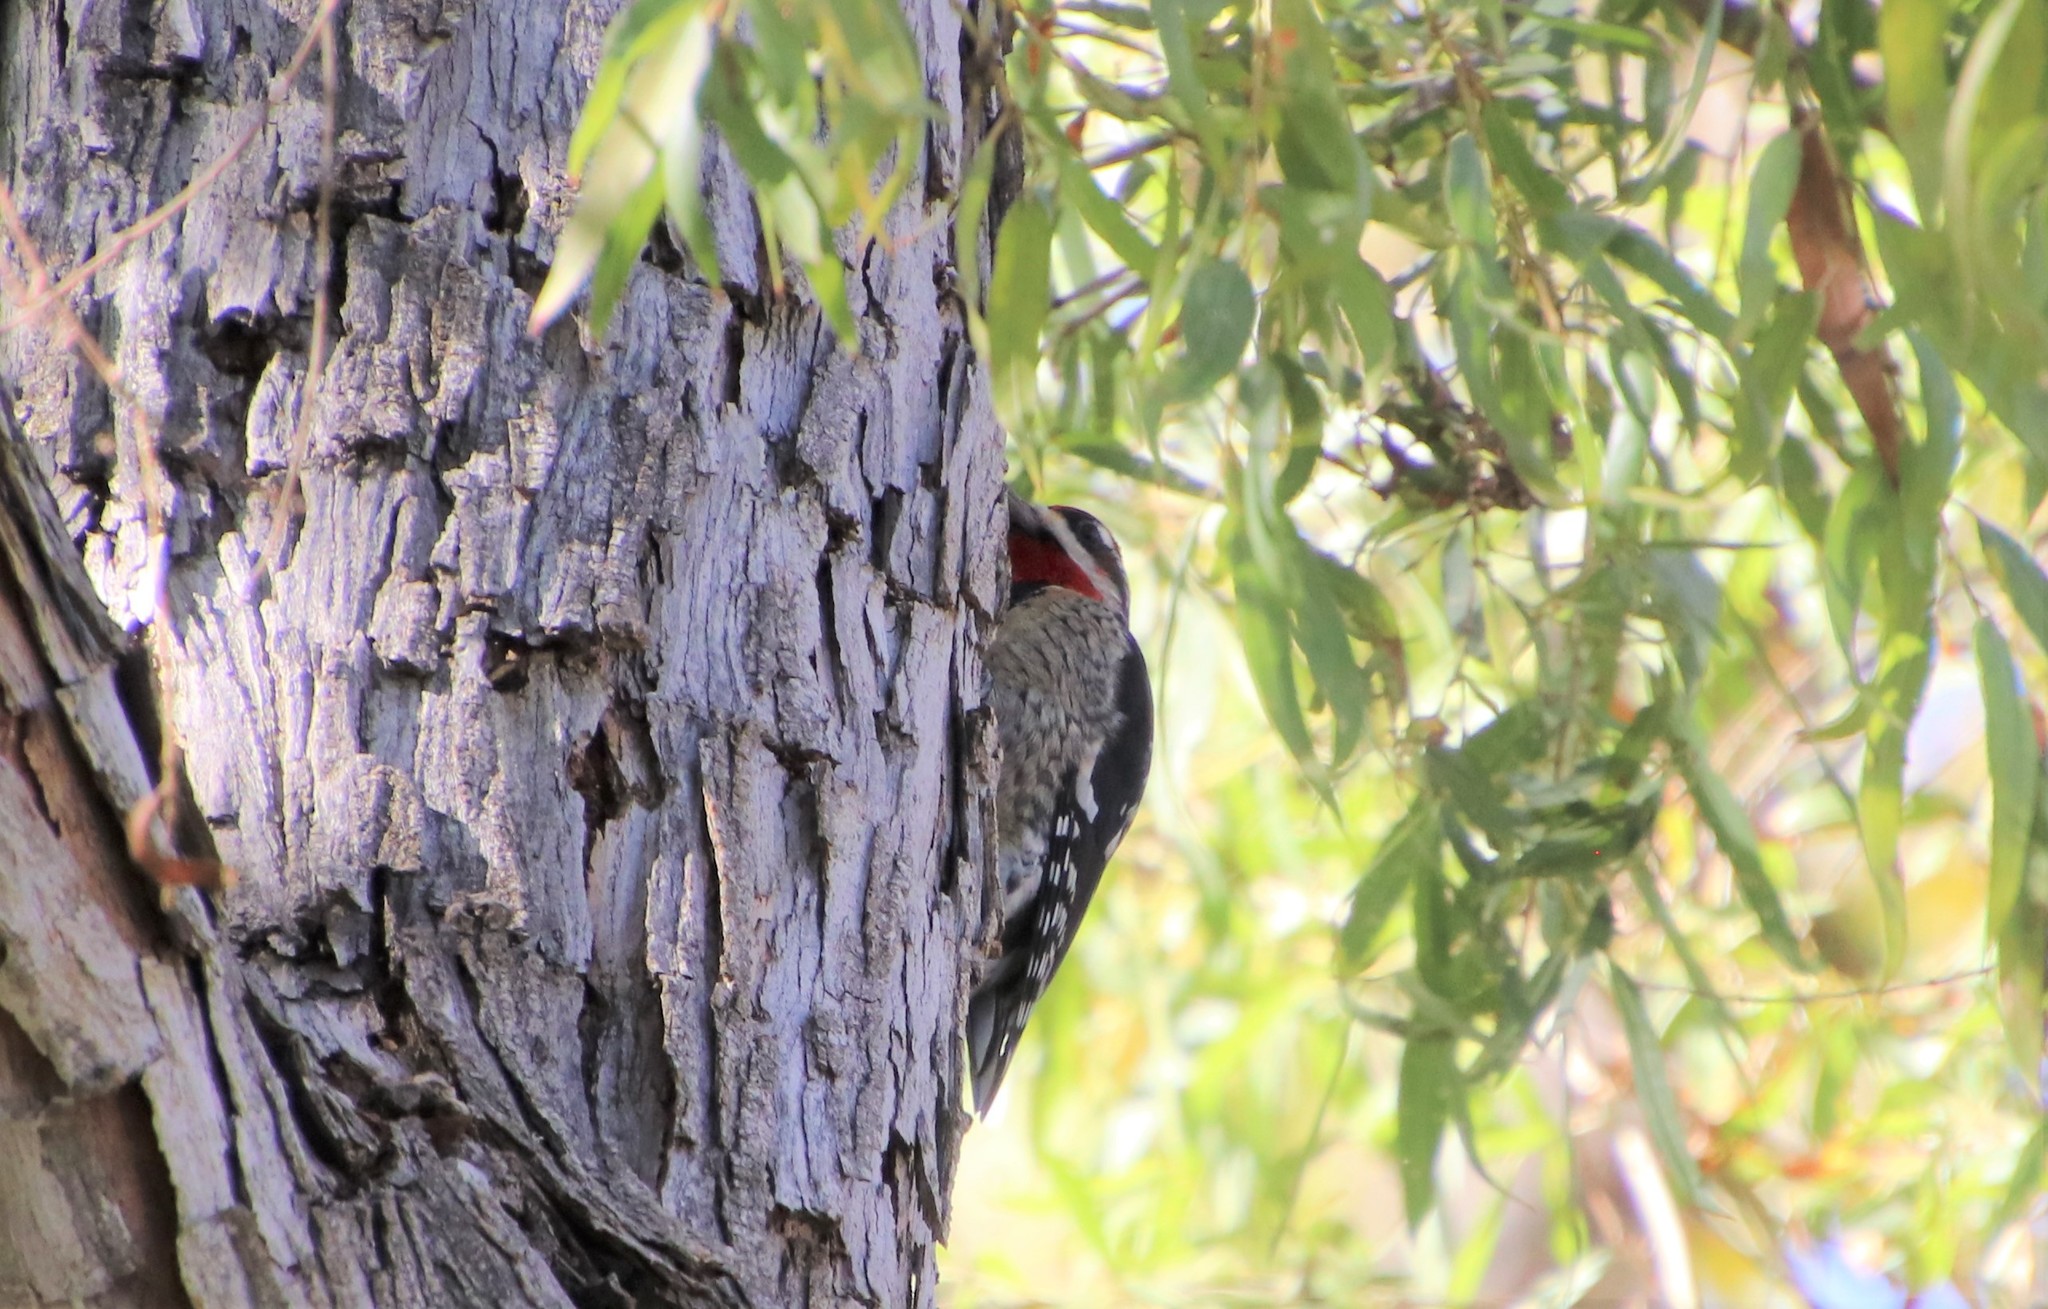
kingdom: Animalia
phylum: Chordata
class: Aves
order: Piciformes
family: Picidae
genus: Sphyrapicus
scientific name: Sphyrapicus nuchalis
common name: Red-naped sapsucker
